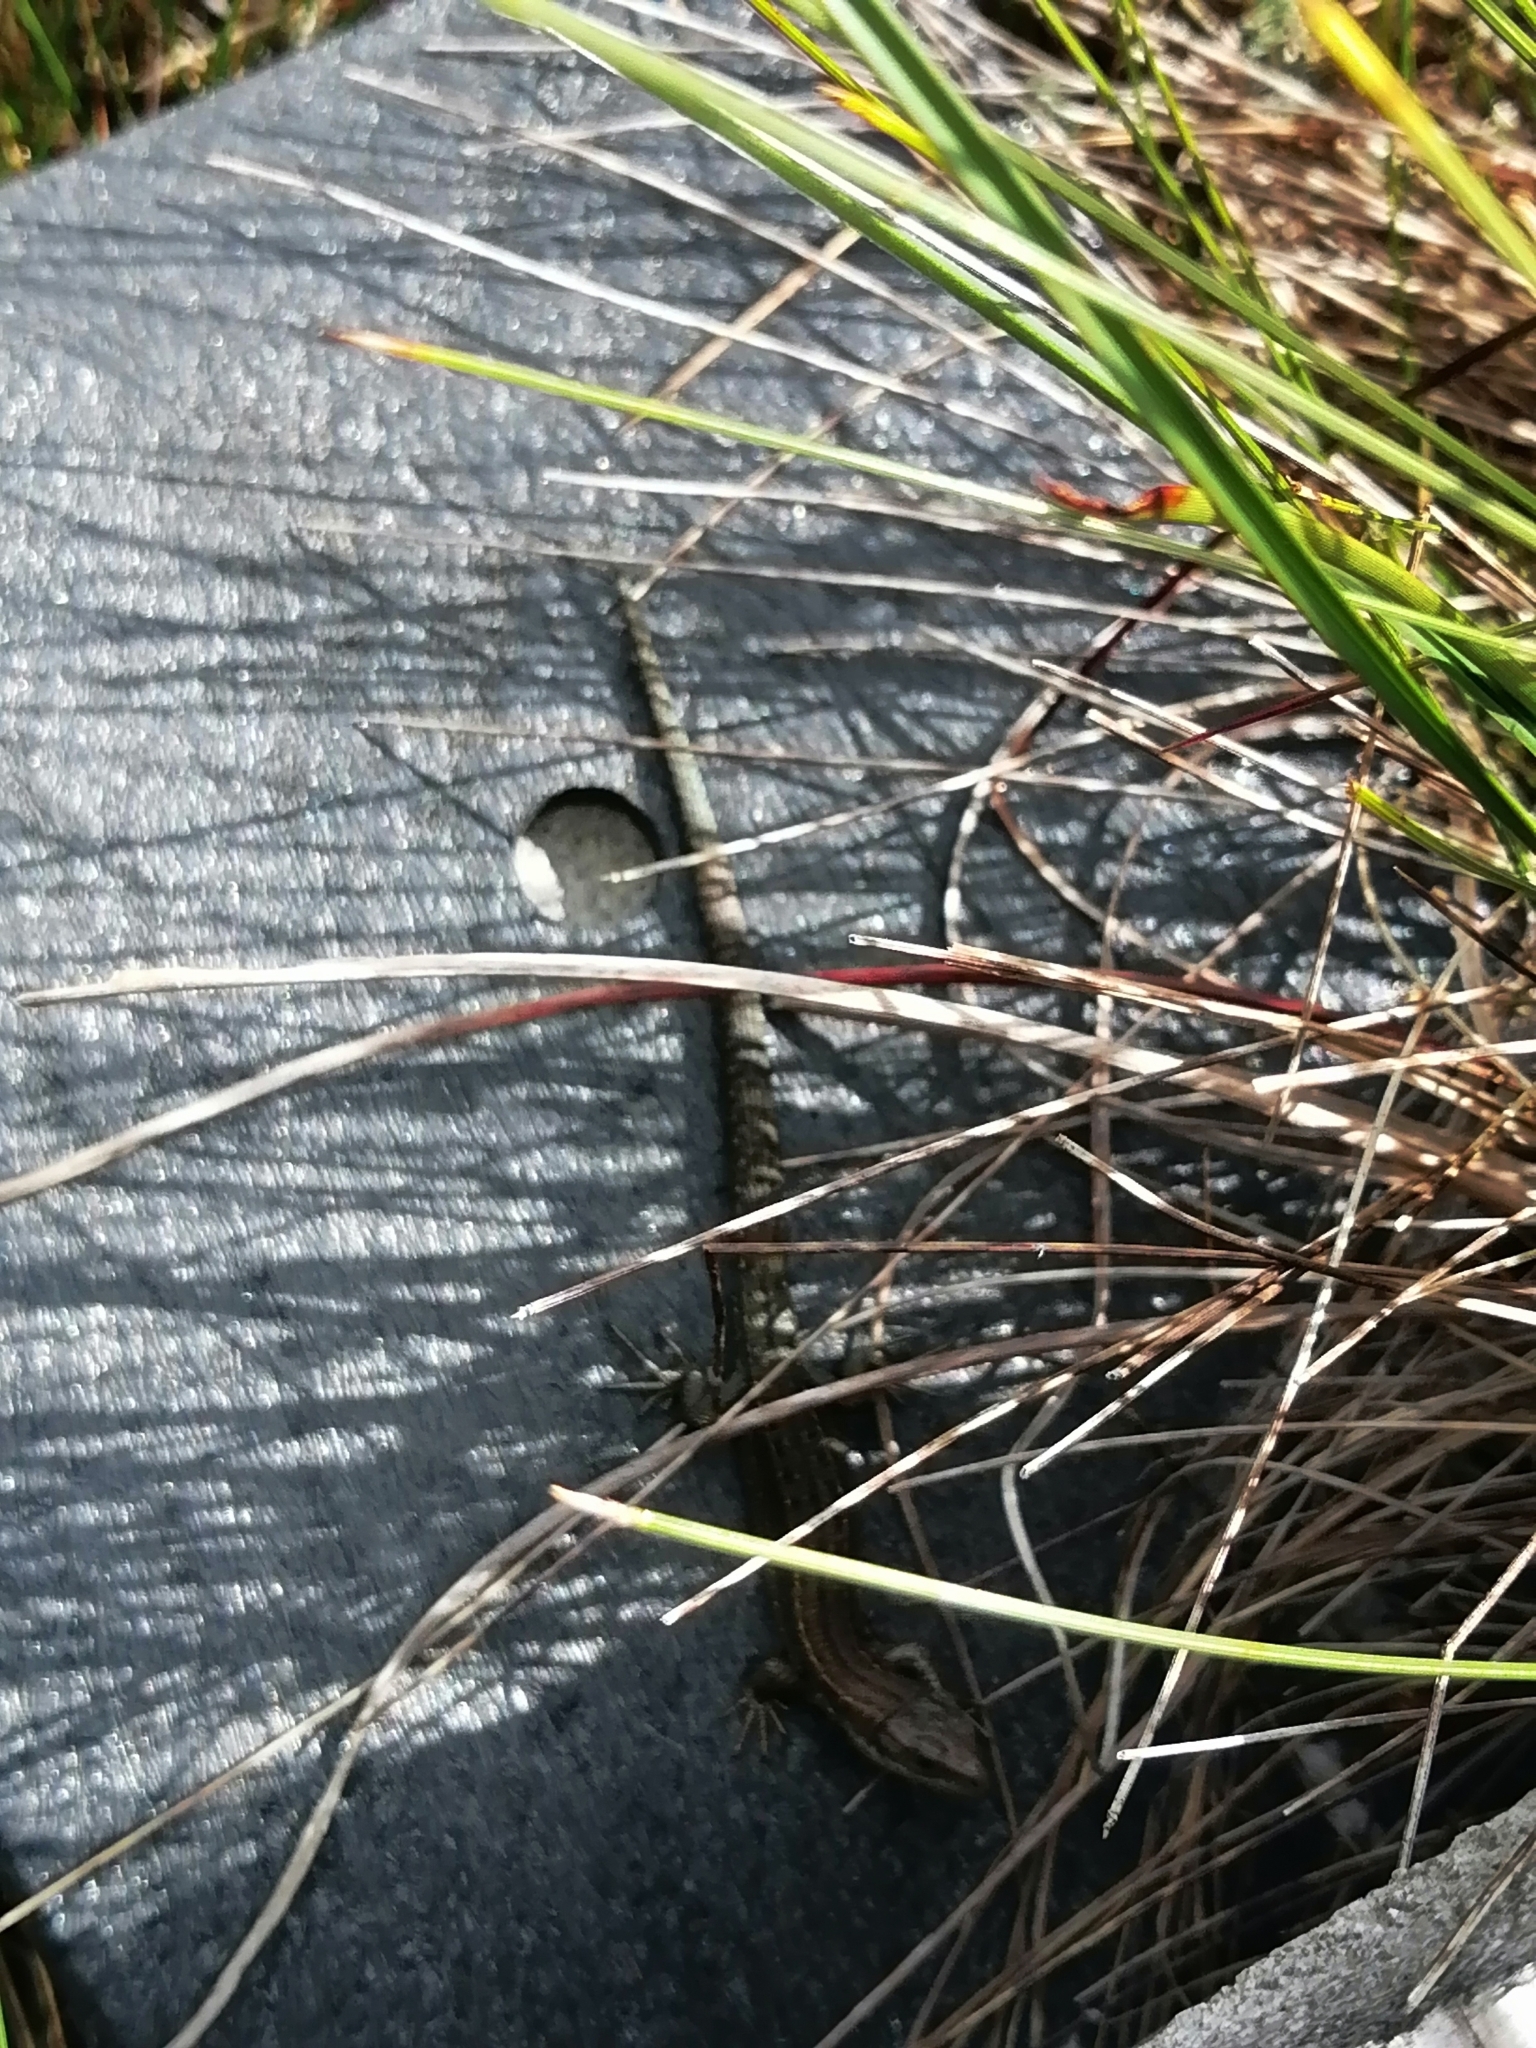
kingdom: Animalia
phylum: Chordata
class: Squamata
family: Lacertidae
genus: Zootoca
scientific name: Zootoca vivipara
